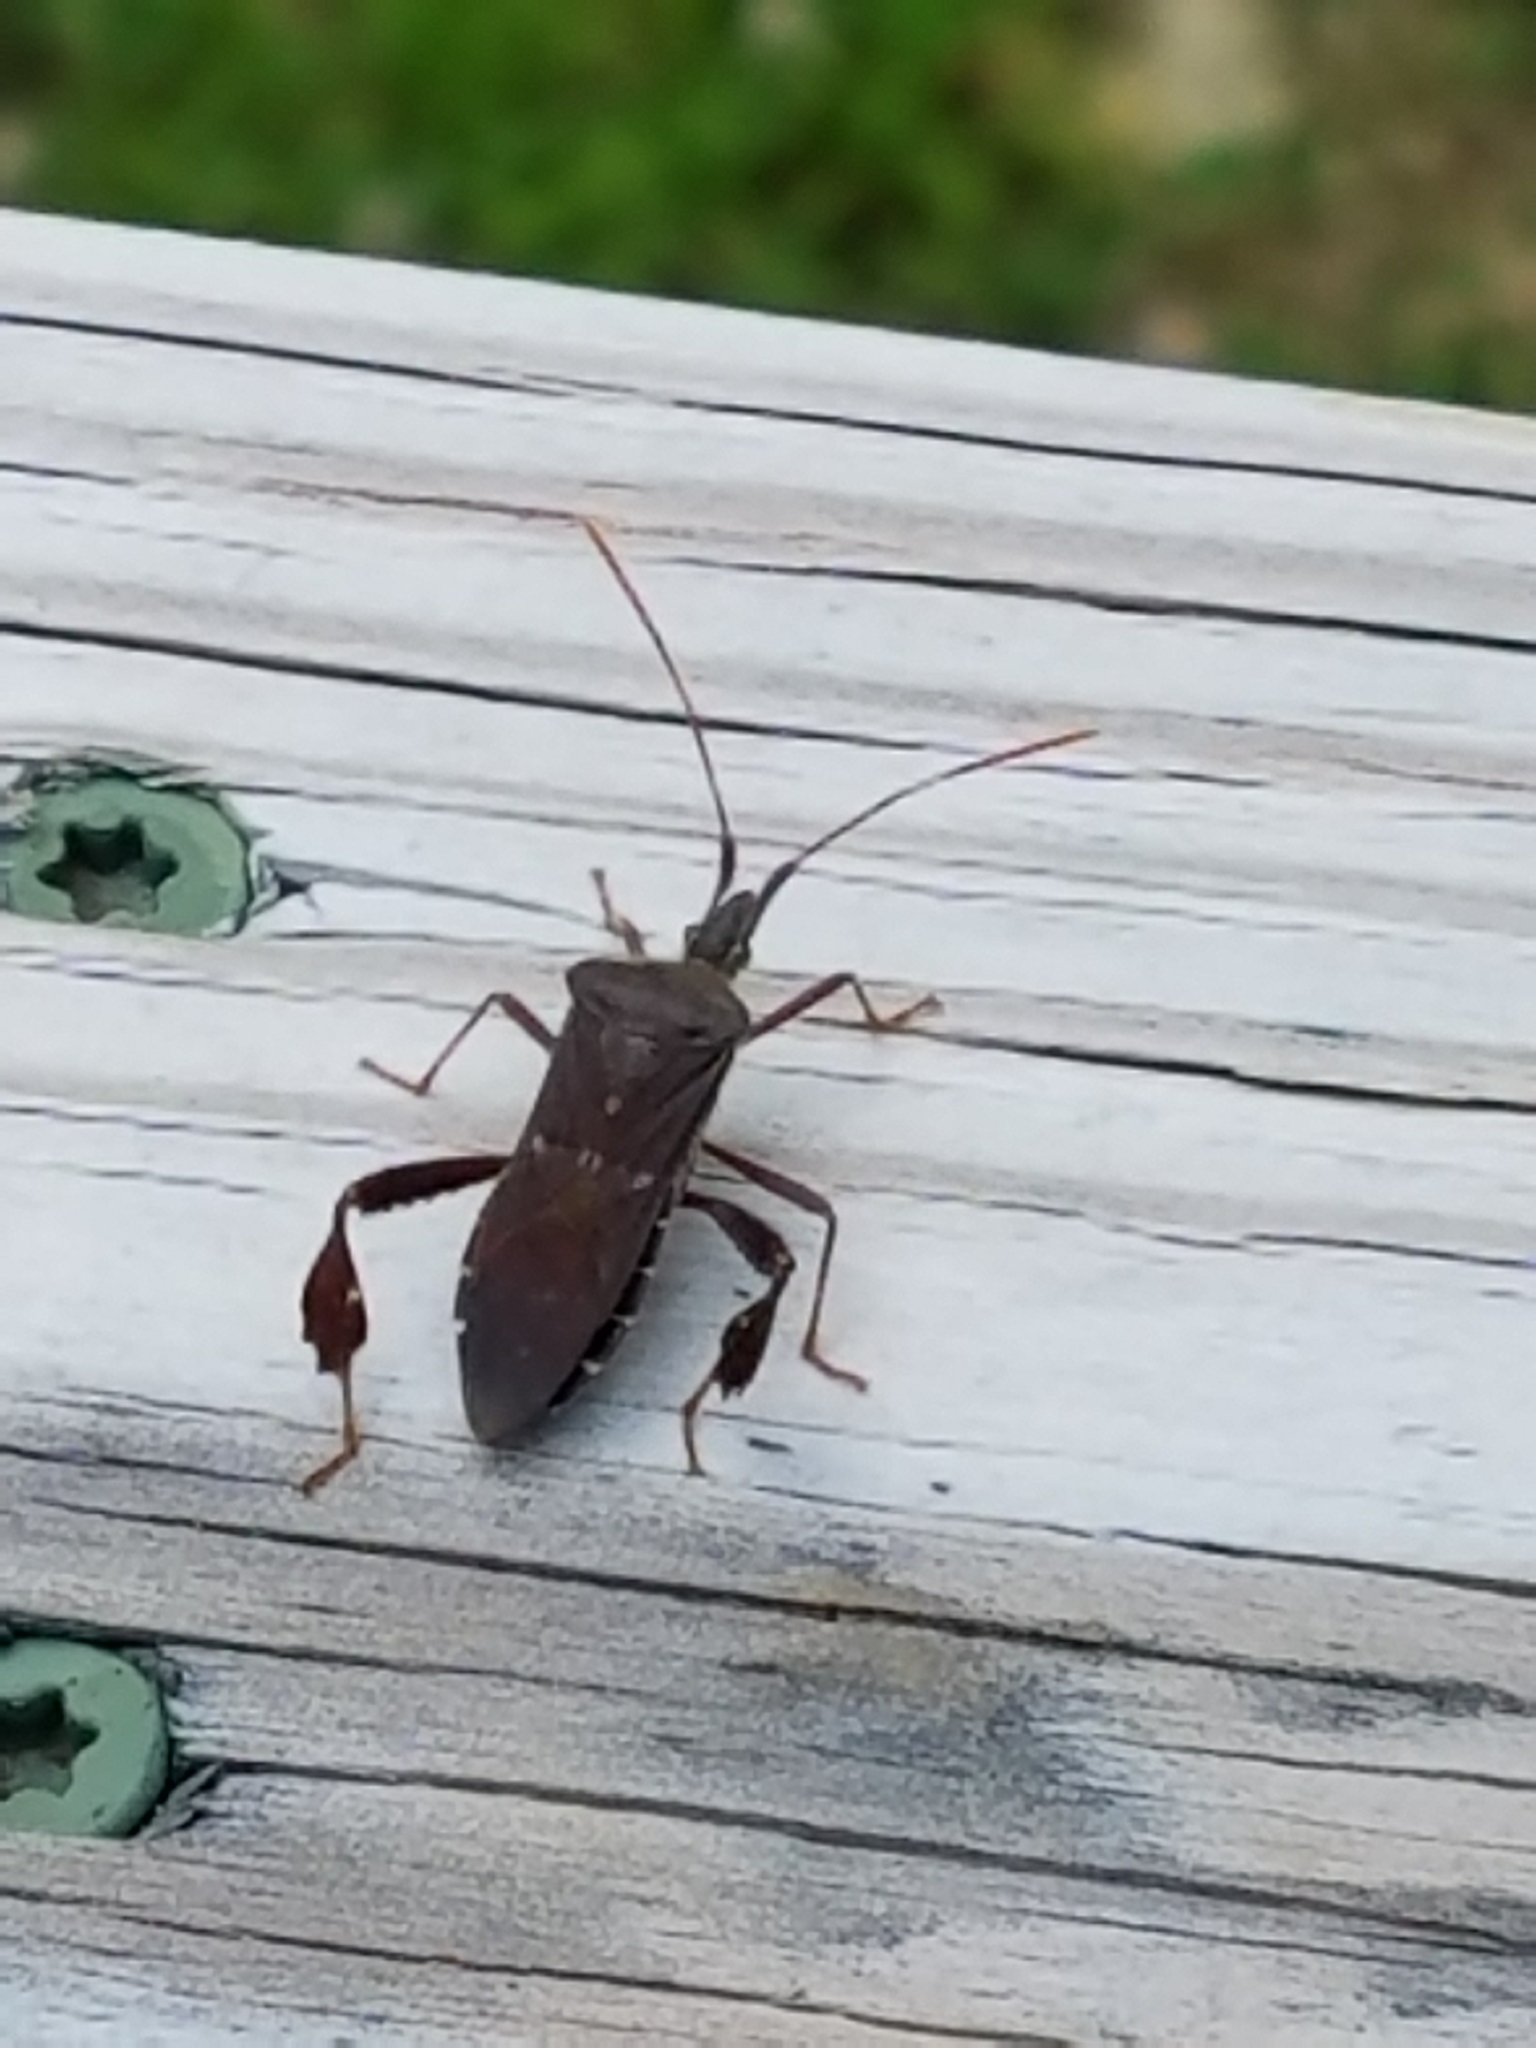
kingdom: Animalia
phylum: Arthropoda
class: Insecta
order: Hemiptera
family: Coreidae
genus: Leptoglossus
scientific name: Leptoglossus oppositus
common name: Northern leaf-footed bug
